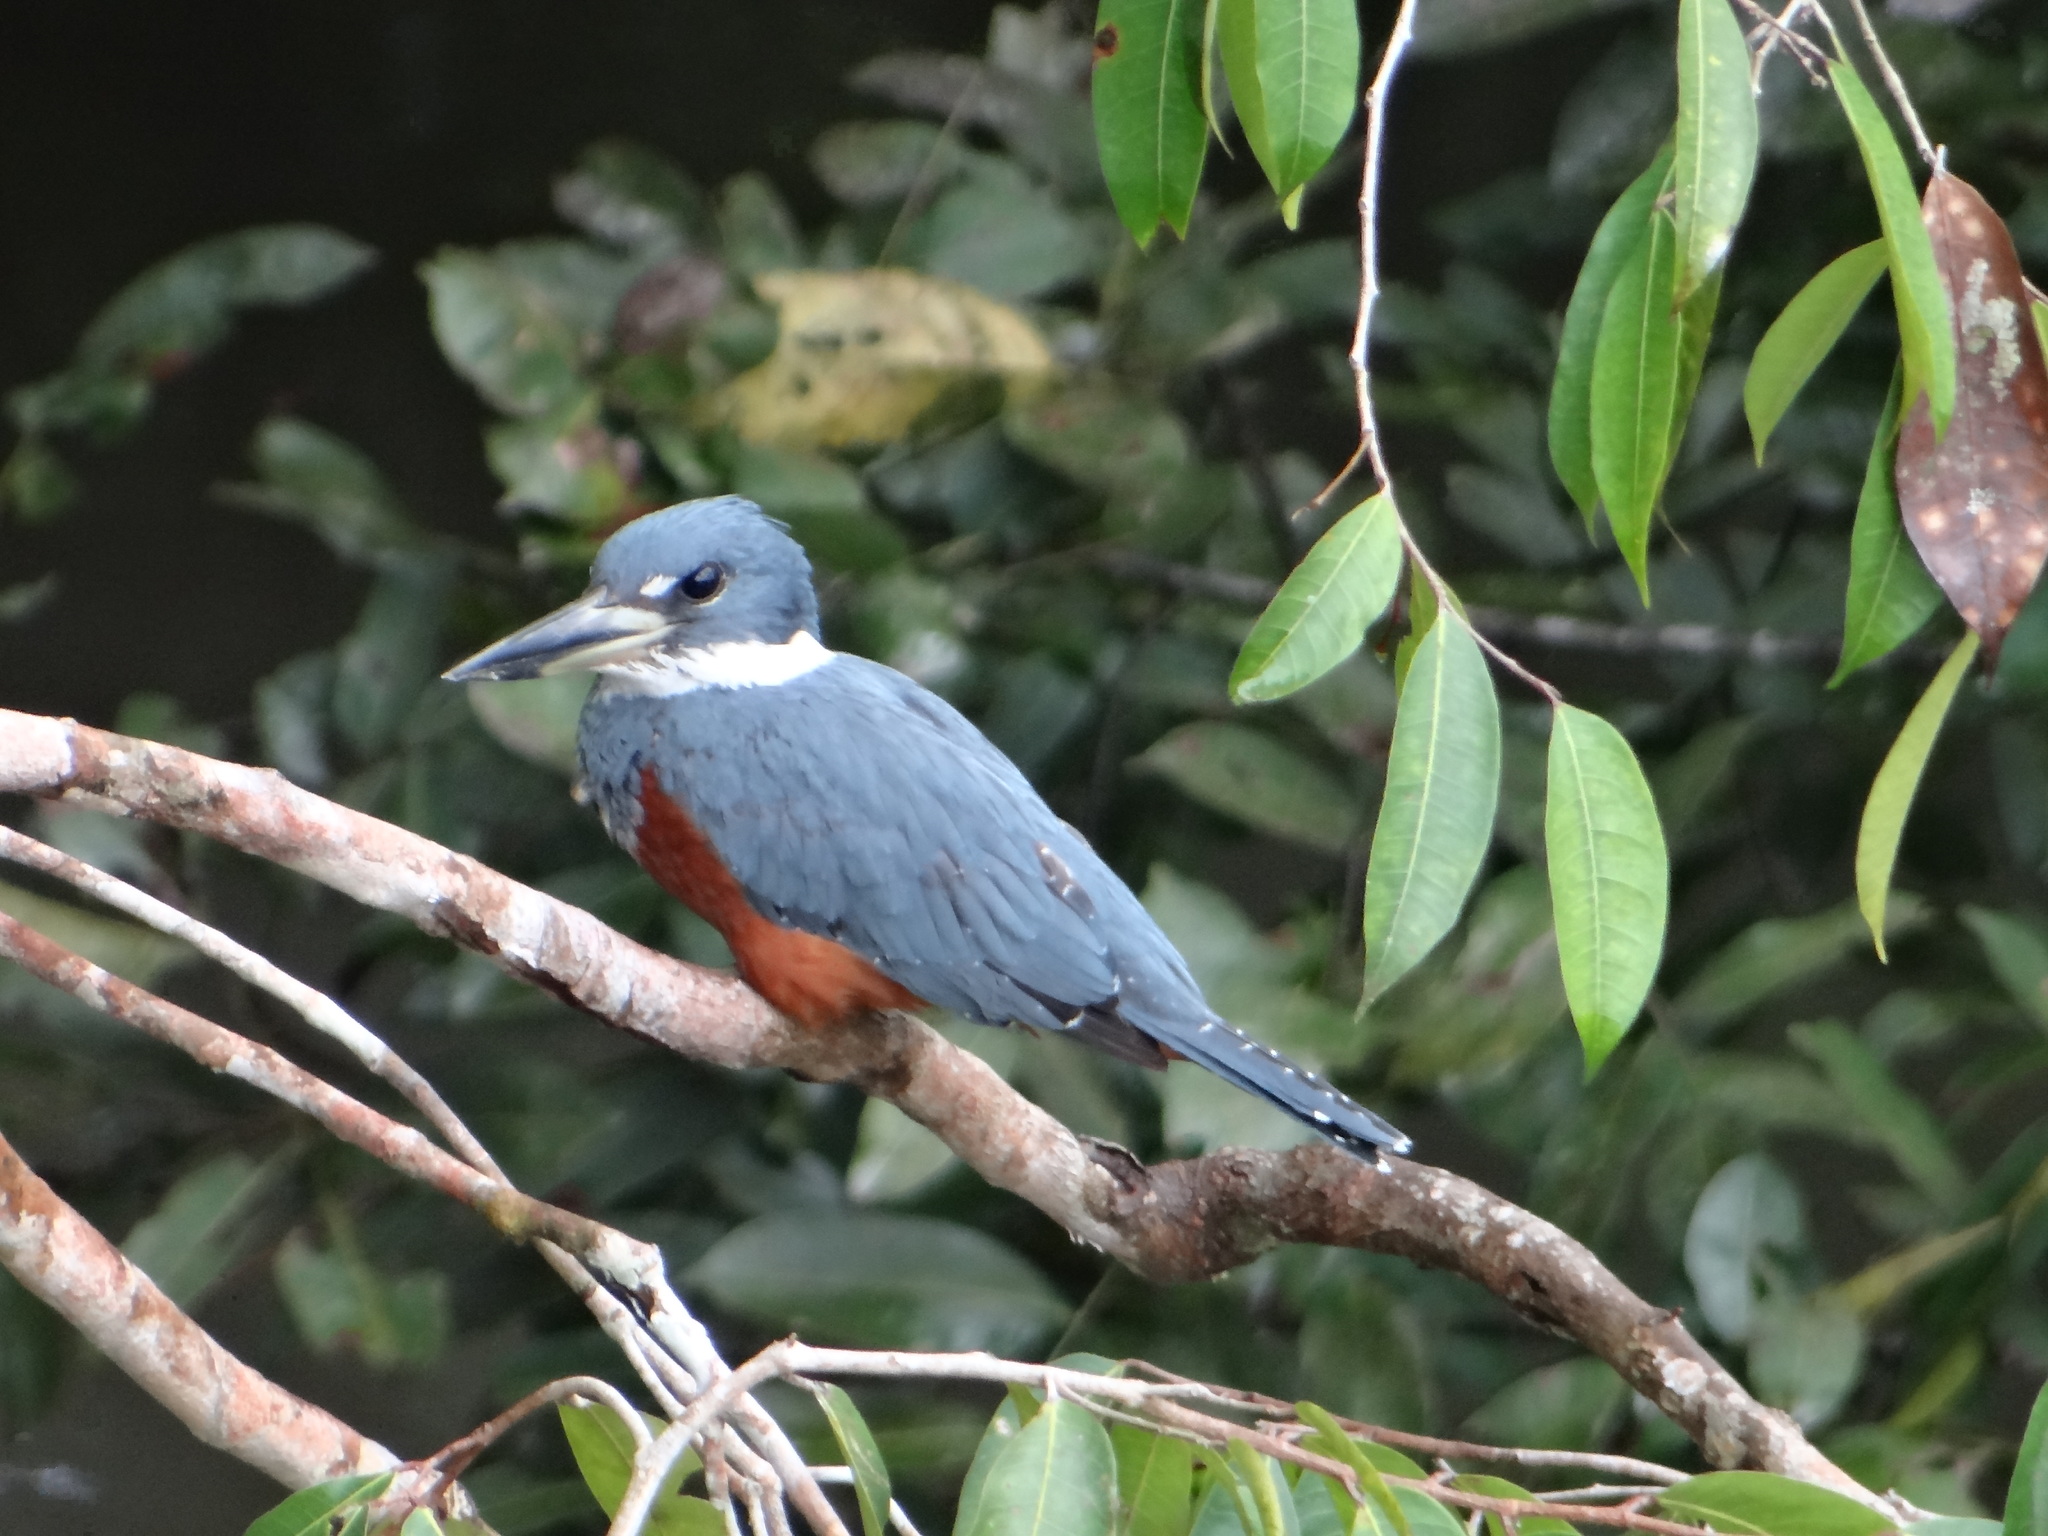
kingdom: Animalia
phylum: Chordata
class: Aves
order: Coraciiformes
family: Alcedinidae
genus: Megaceryle
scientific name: Megaceryle torquata
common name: Ringed kingfisher
